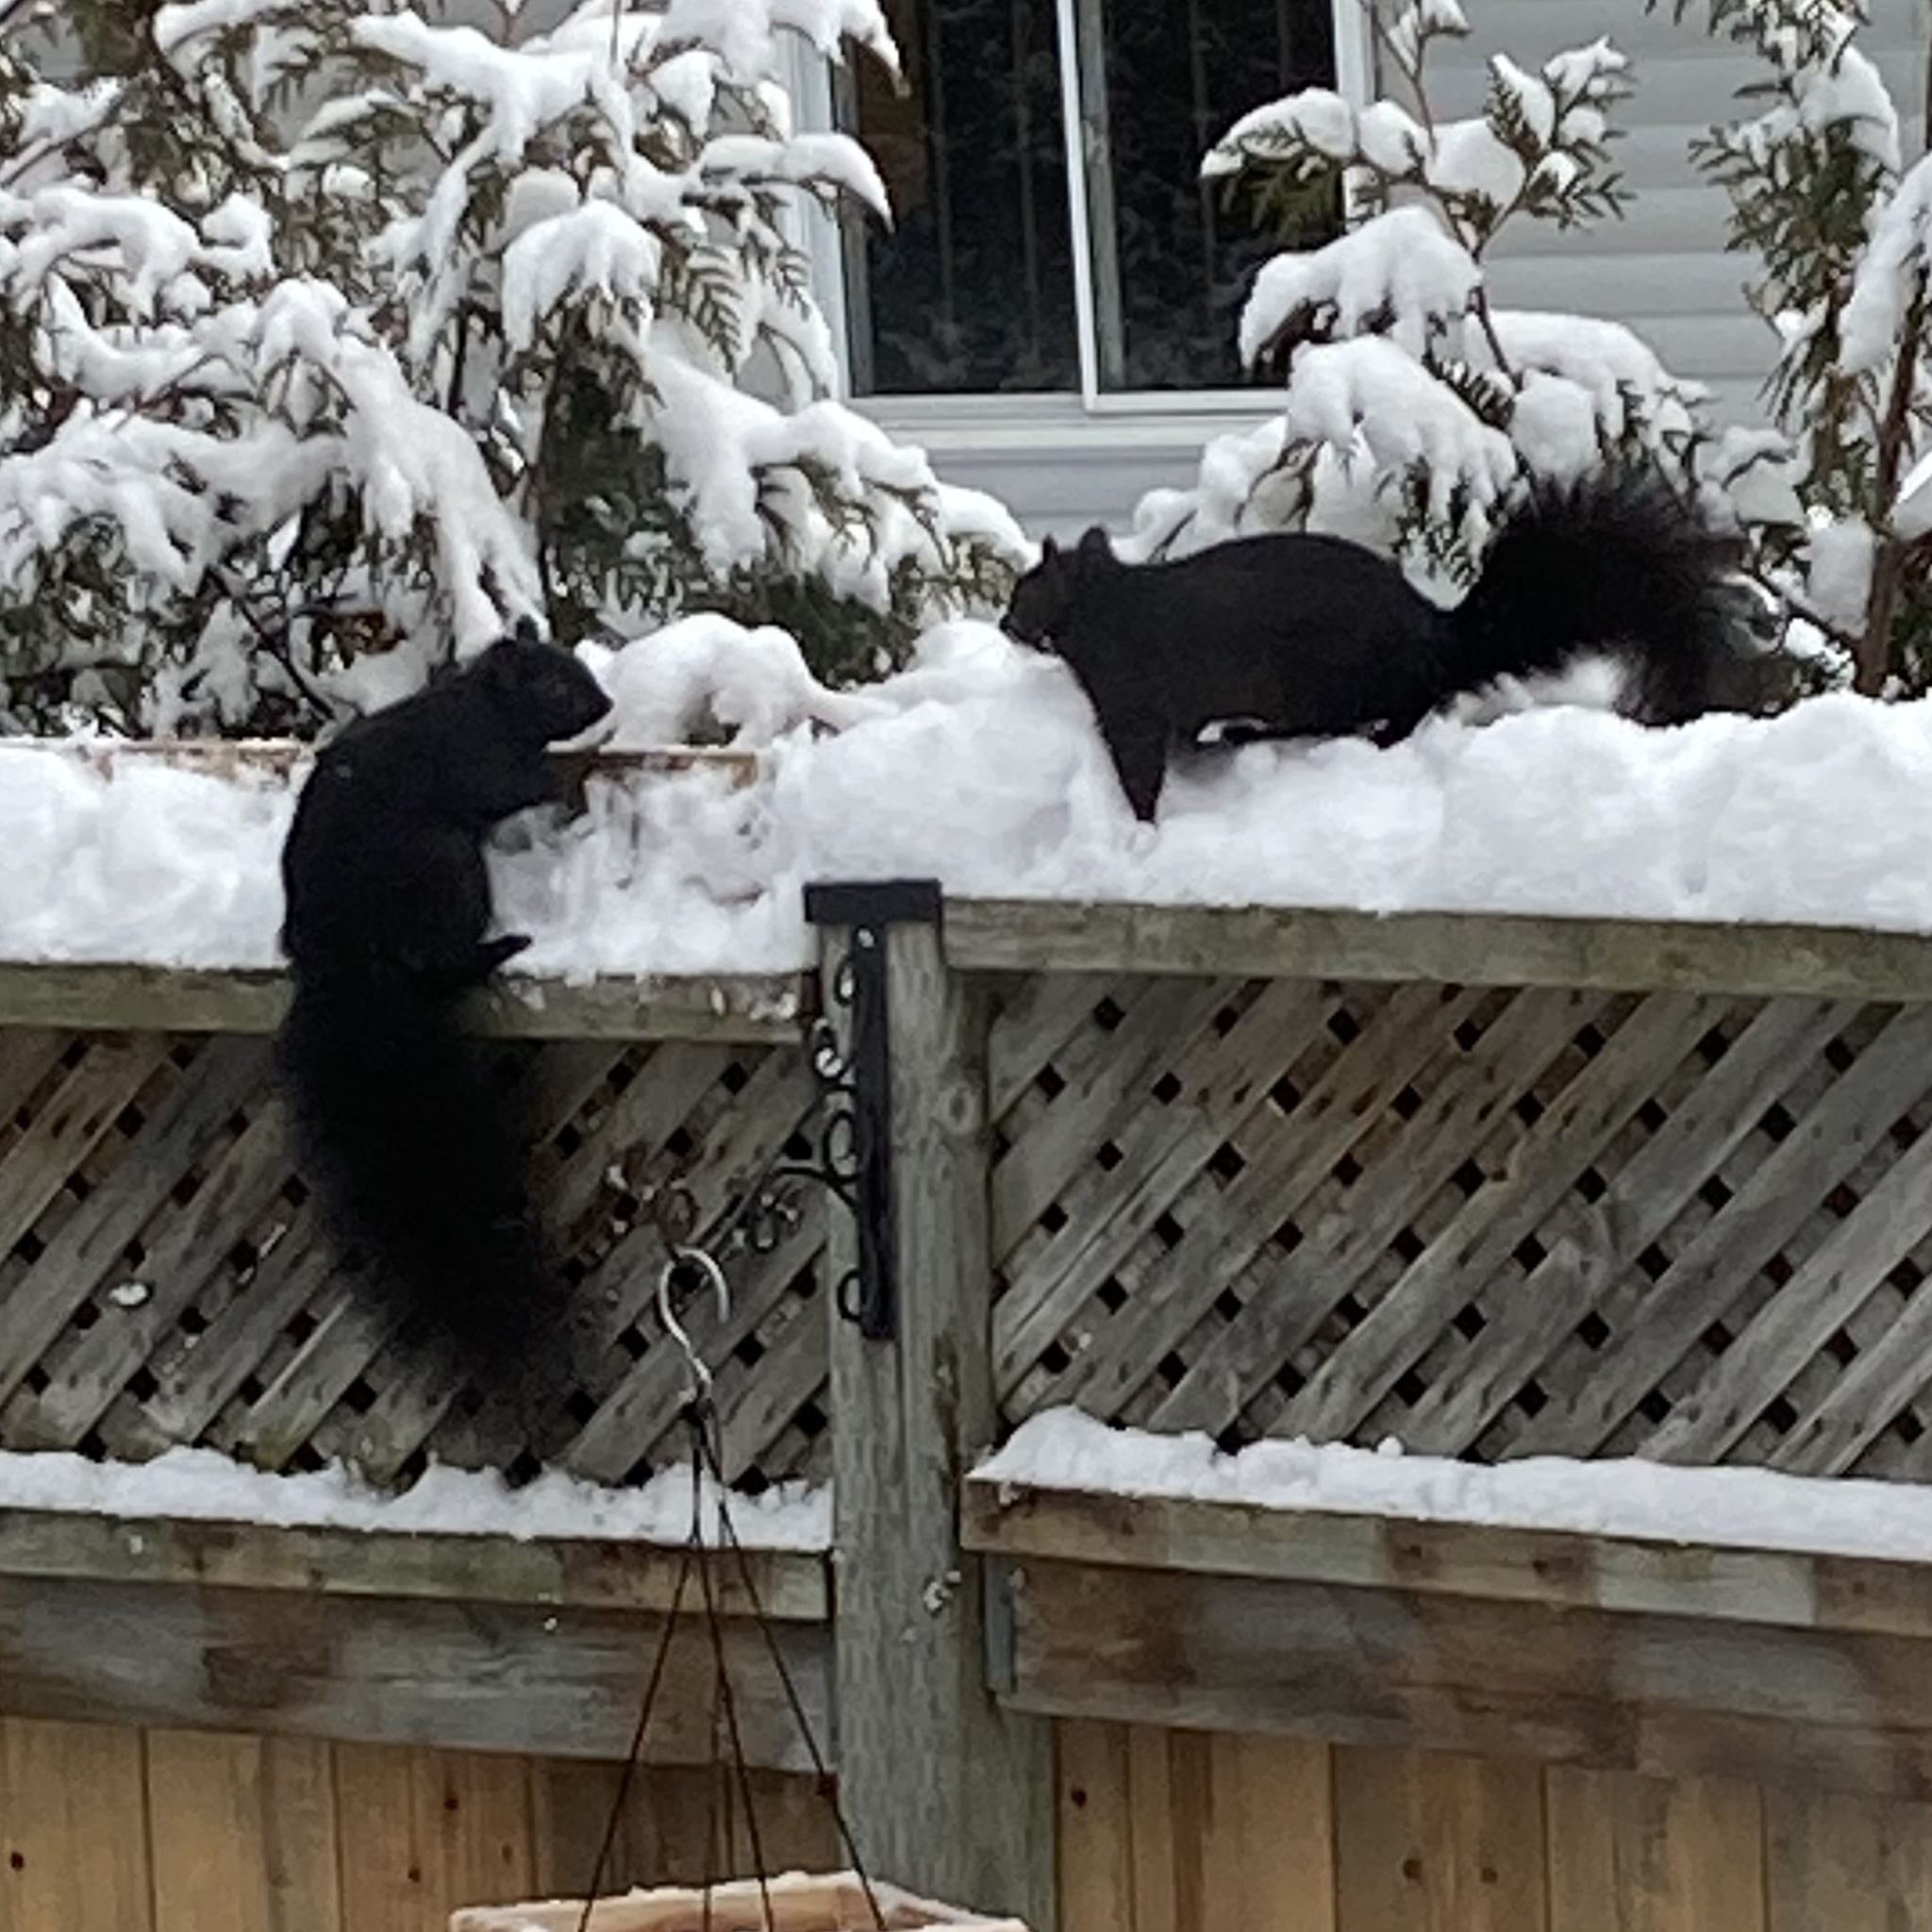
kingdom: Animalia
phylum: Chordata
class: Mammalia
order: Rodentia
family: Sciuridae
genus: Sciurus
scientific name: Sciurus carolinensis
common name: Eastern gray squirrel
